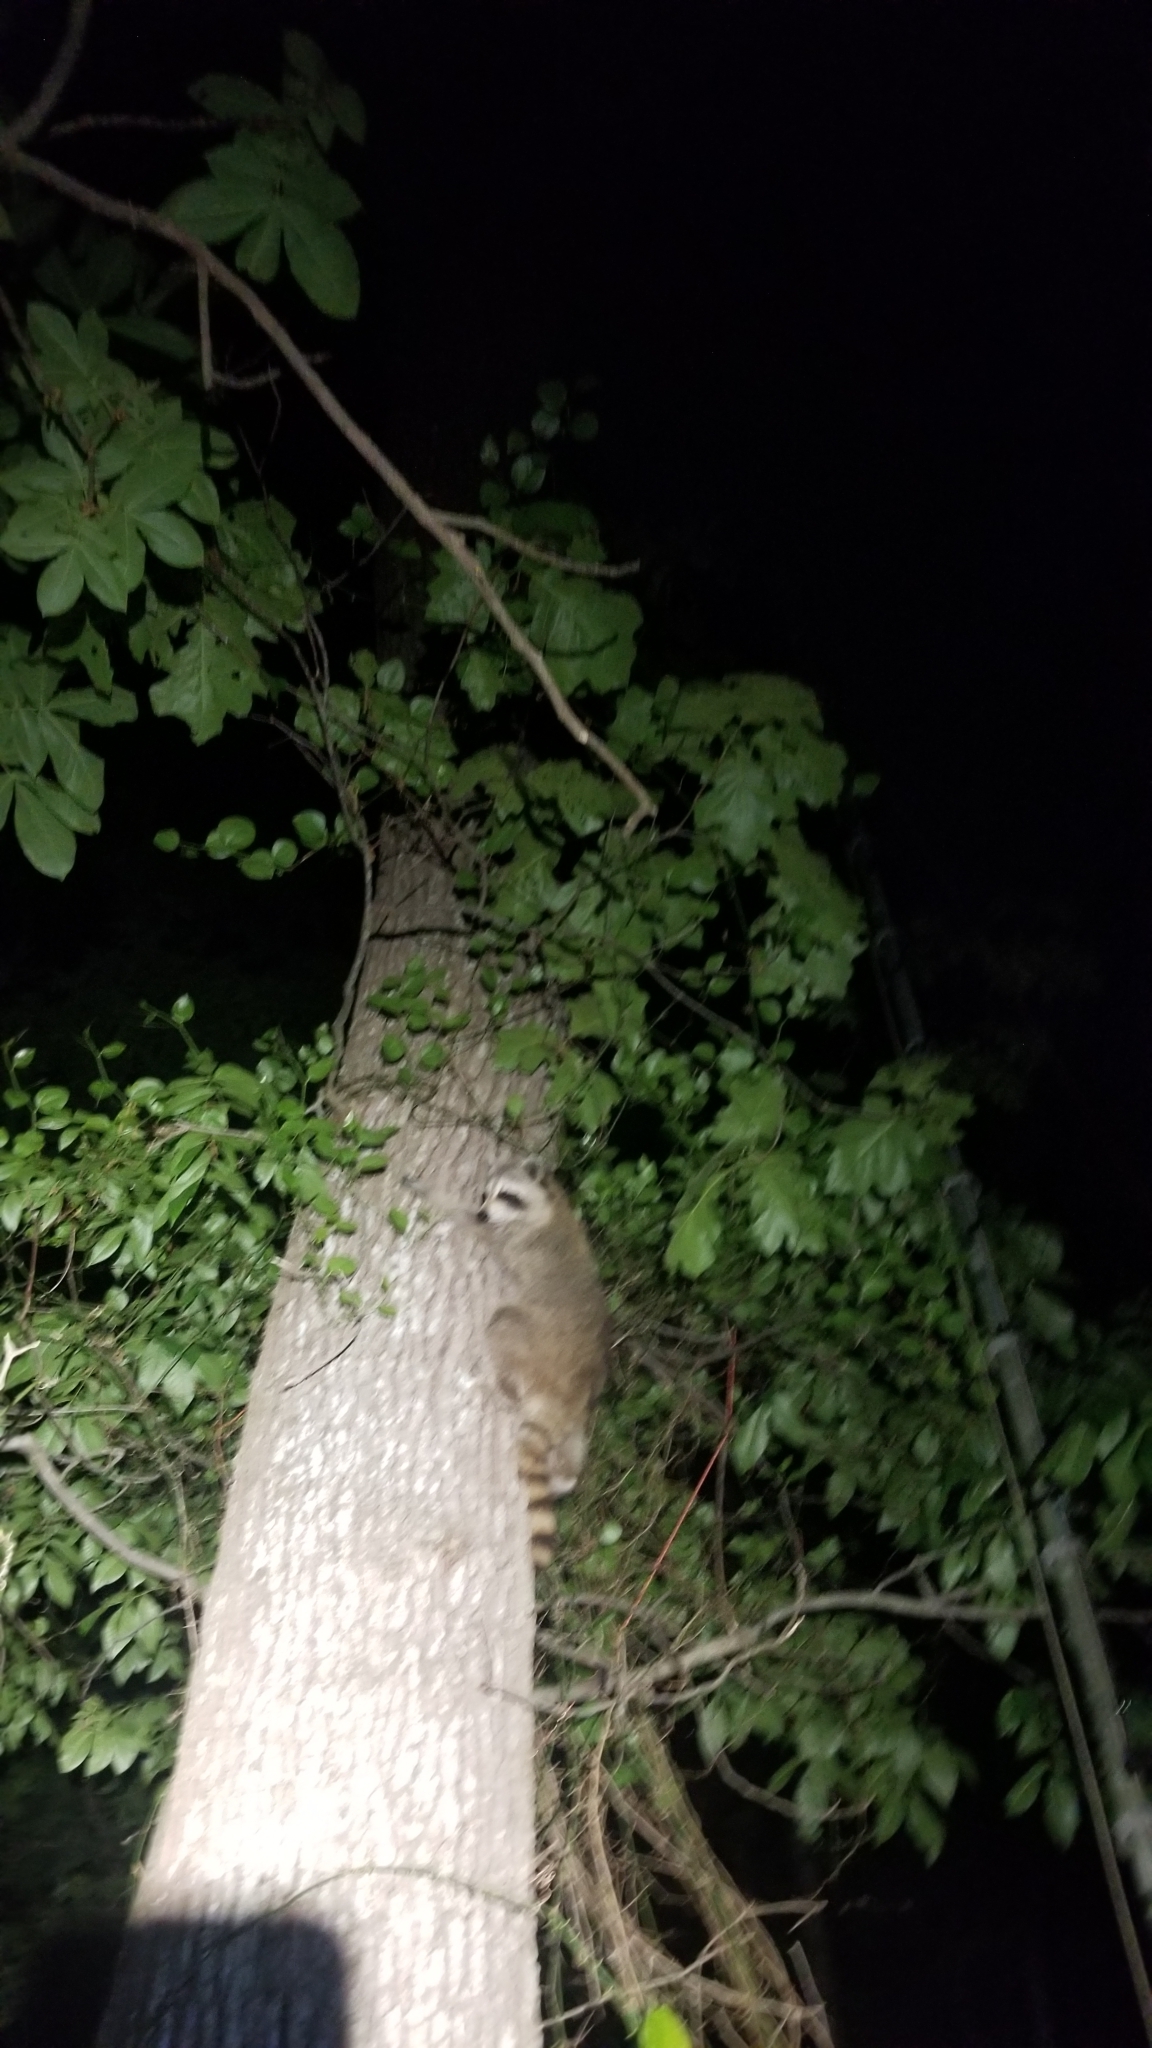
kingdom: Animalia
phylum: Chordata
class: Mammalia
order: Carnivora
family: Procyonidae
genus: Procyon
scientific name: Procyon lotor
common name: Raccoon
